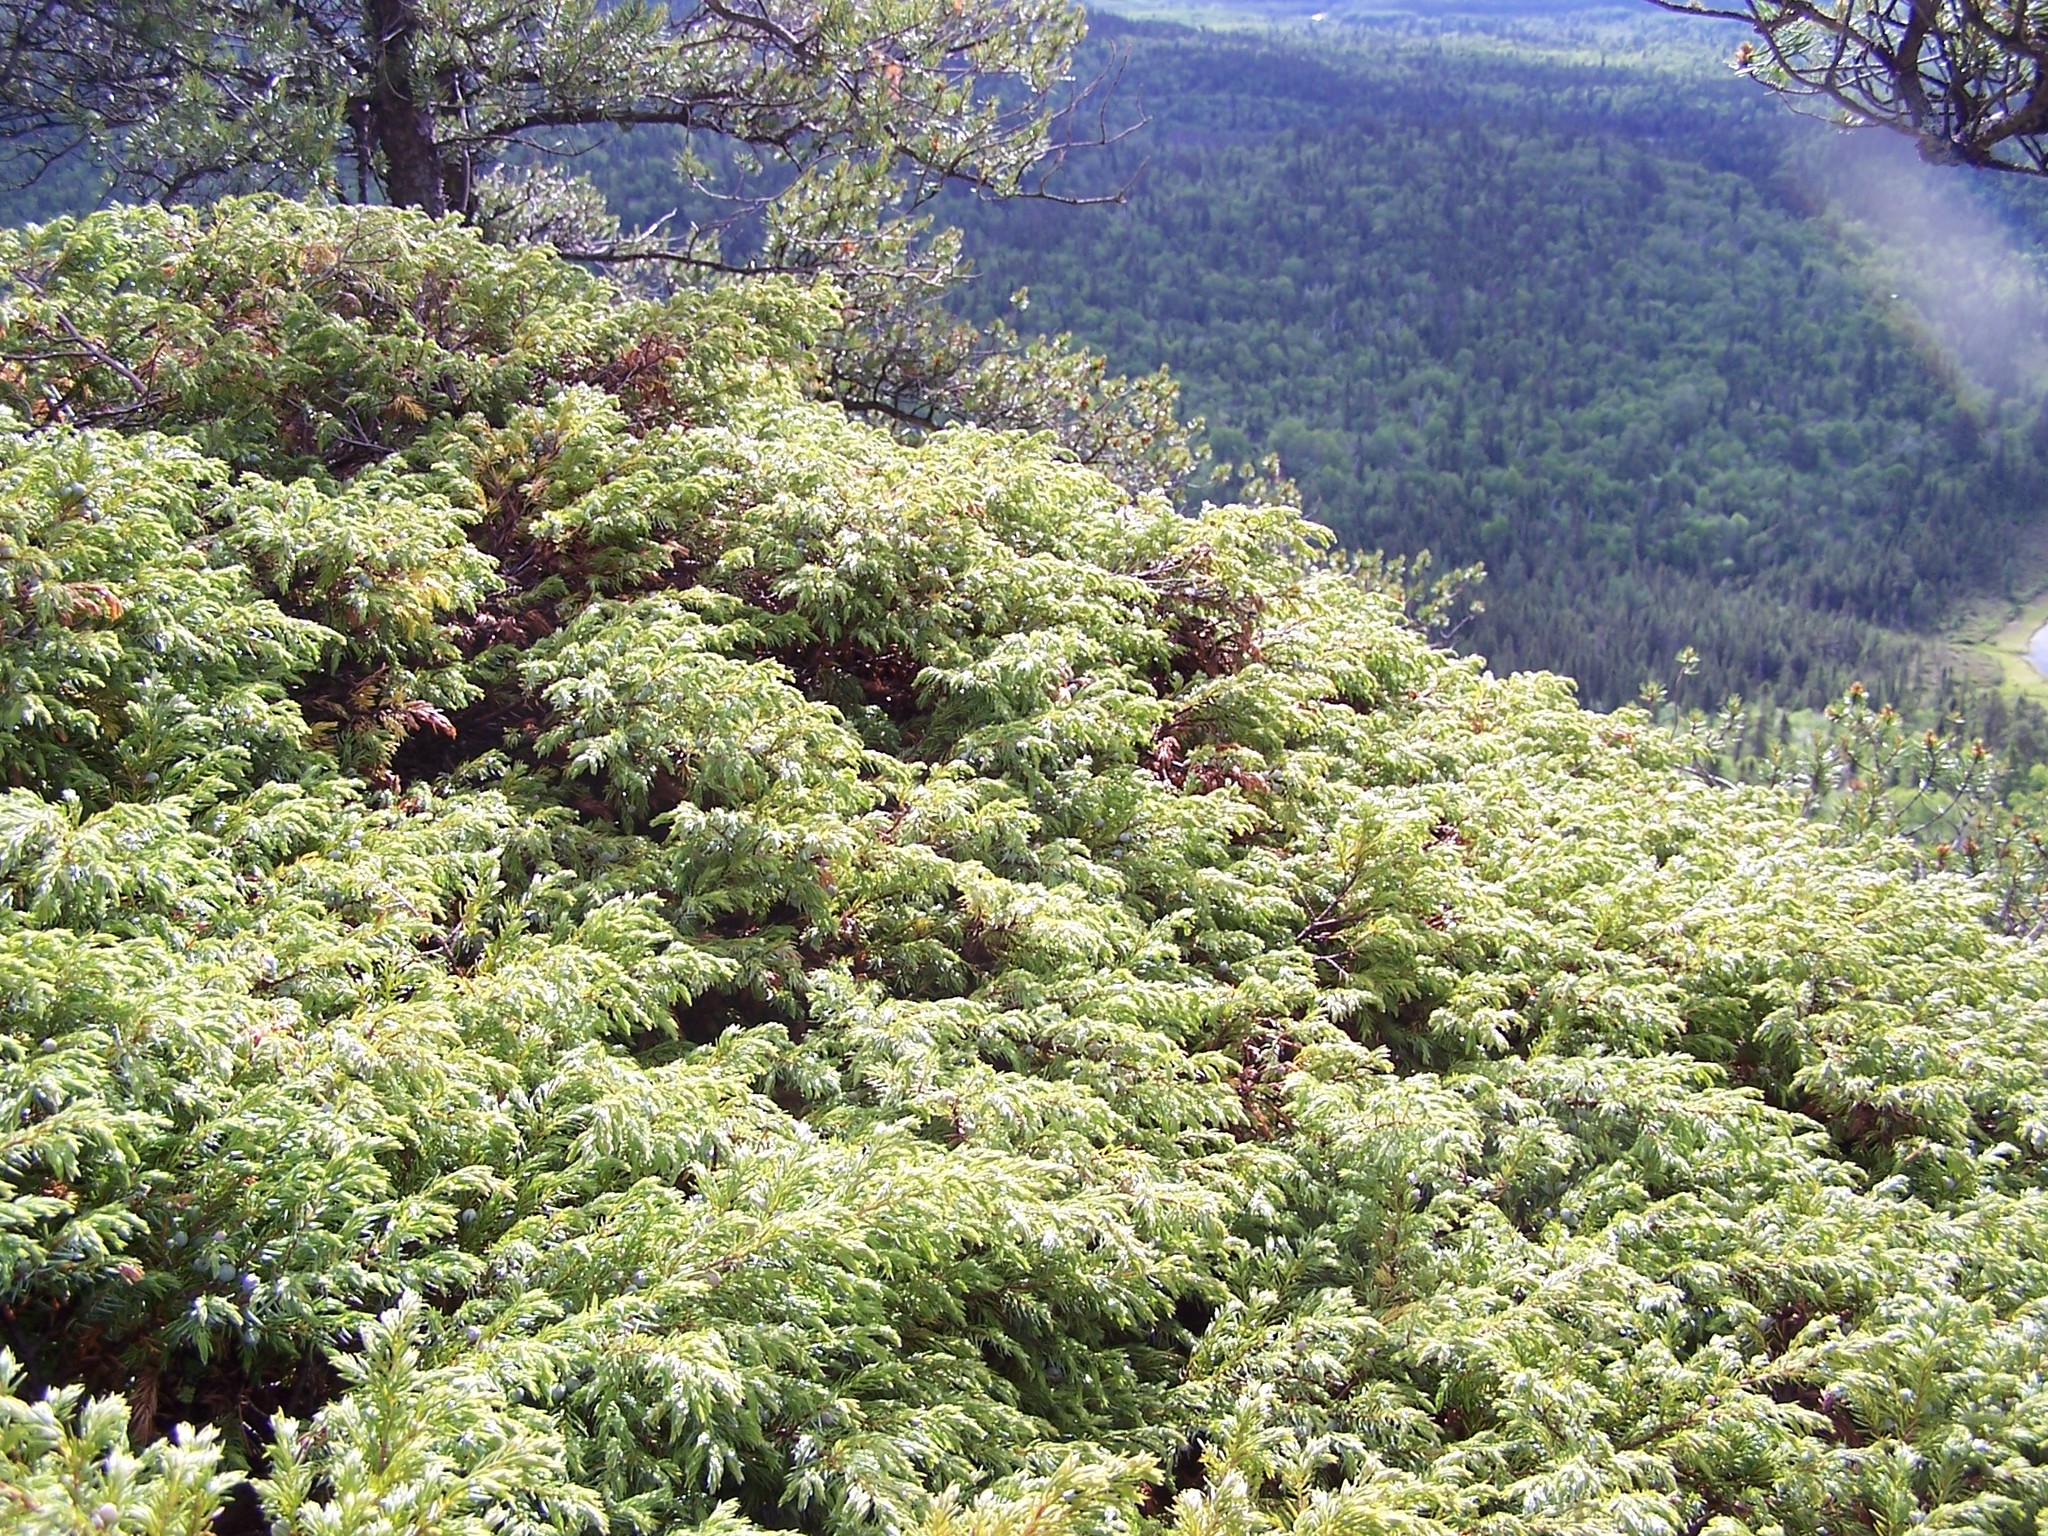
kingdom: Plantae
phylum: Tracheophyta
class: Pinopsida
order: Pinales
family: Cupressaceae
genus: Juniperus
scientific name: Juniperus communis
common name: Common juniper
